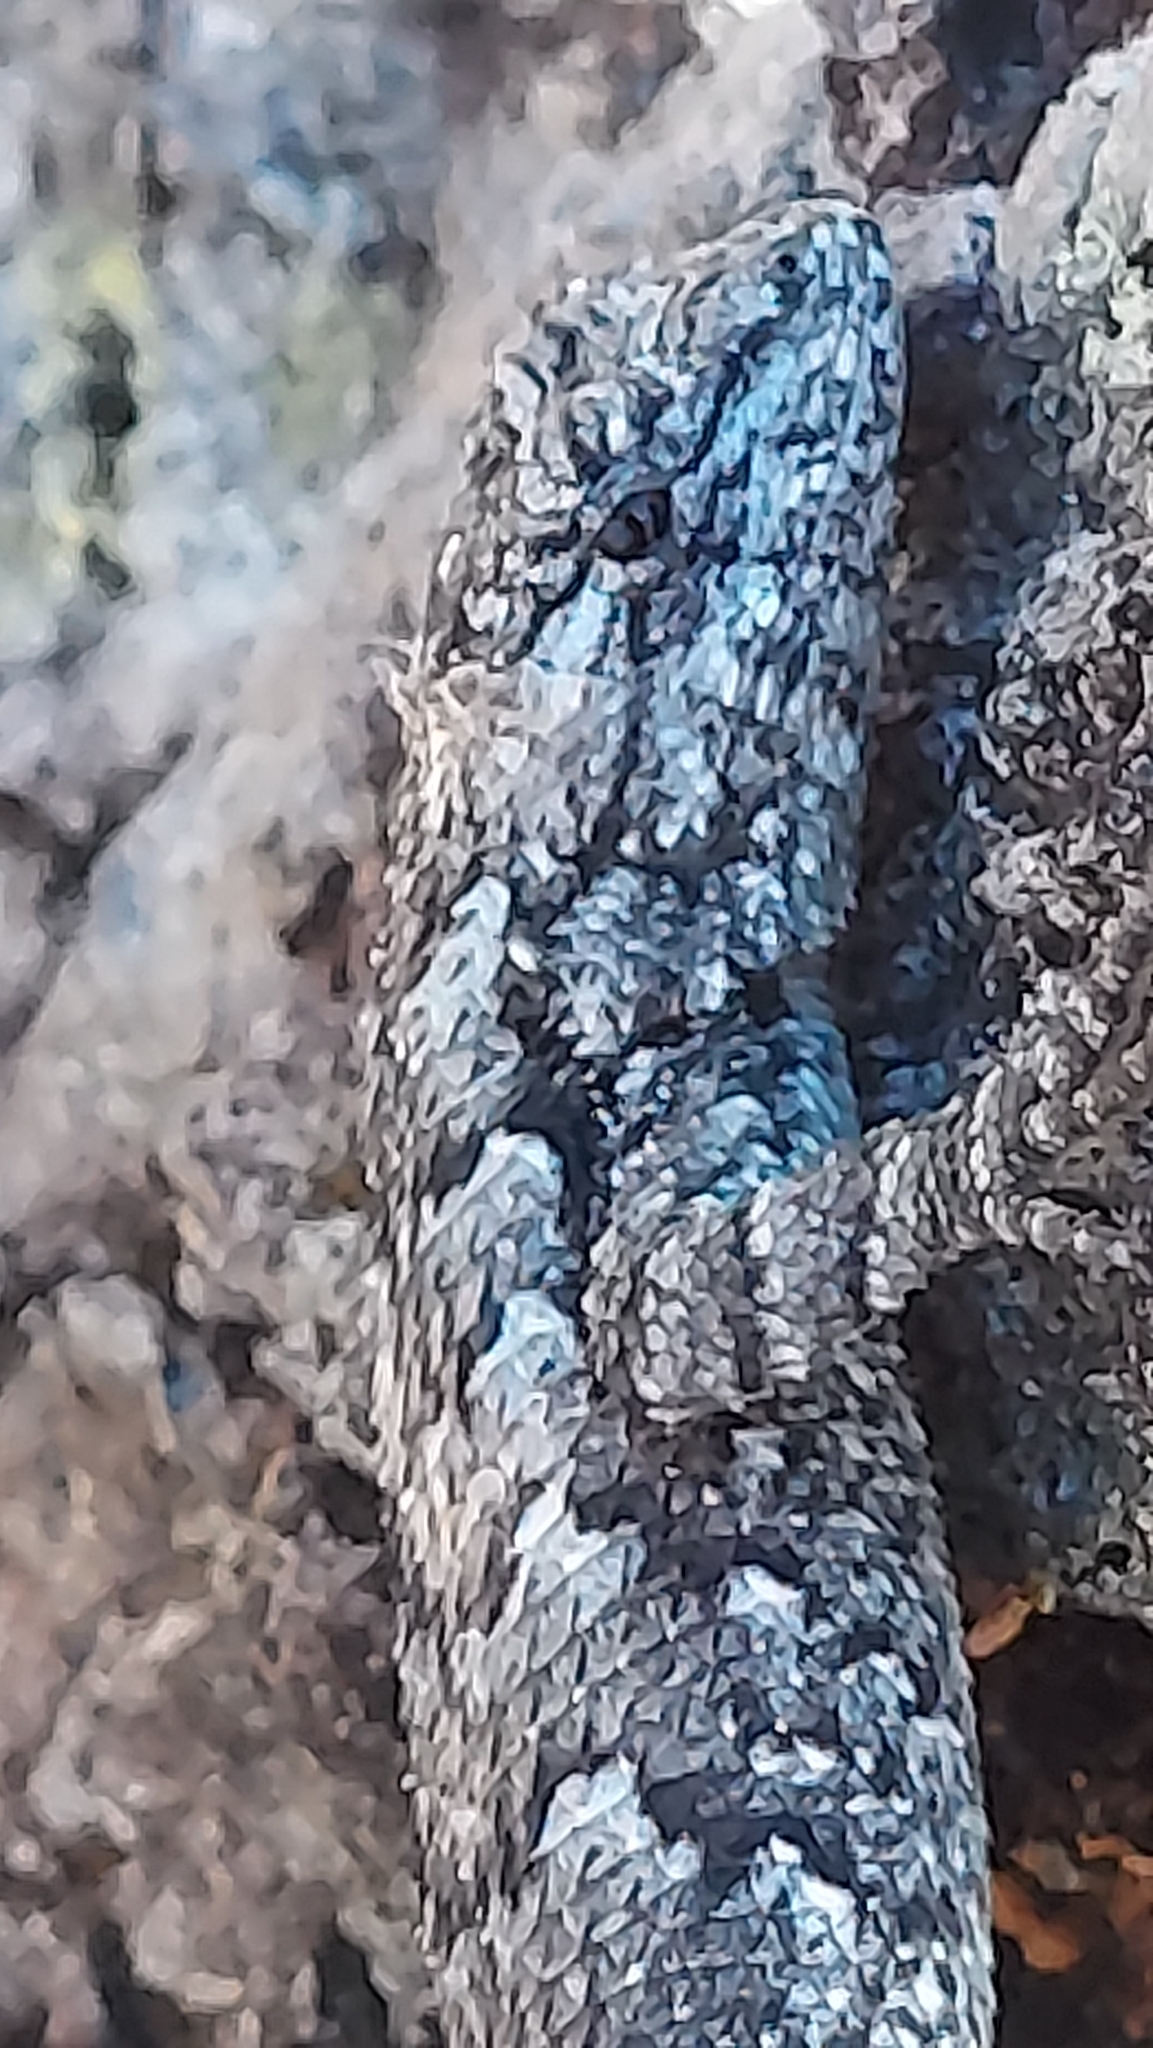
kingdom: Animalia
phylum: Chordata
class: Squamata
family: Phrynosomatidae
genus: Sceloporus
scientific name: Sceloporus undulatus
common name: Eastern fence lizard
